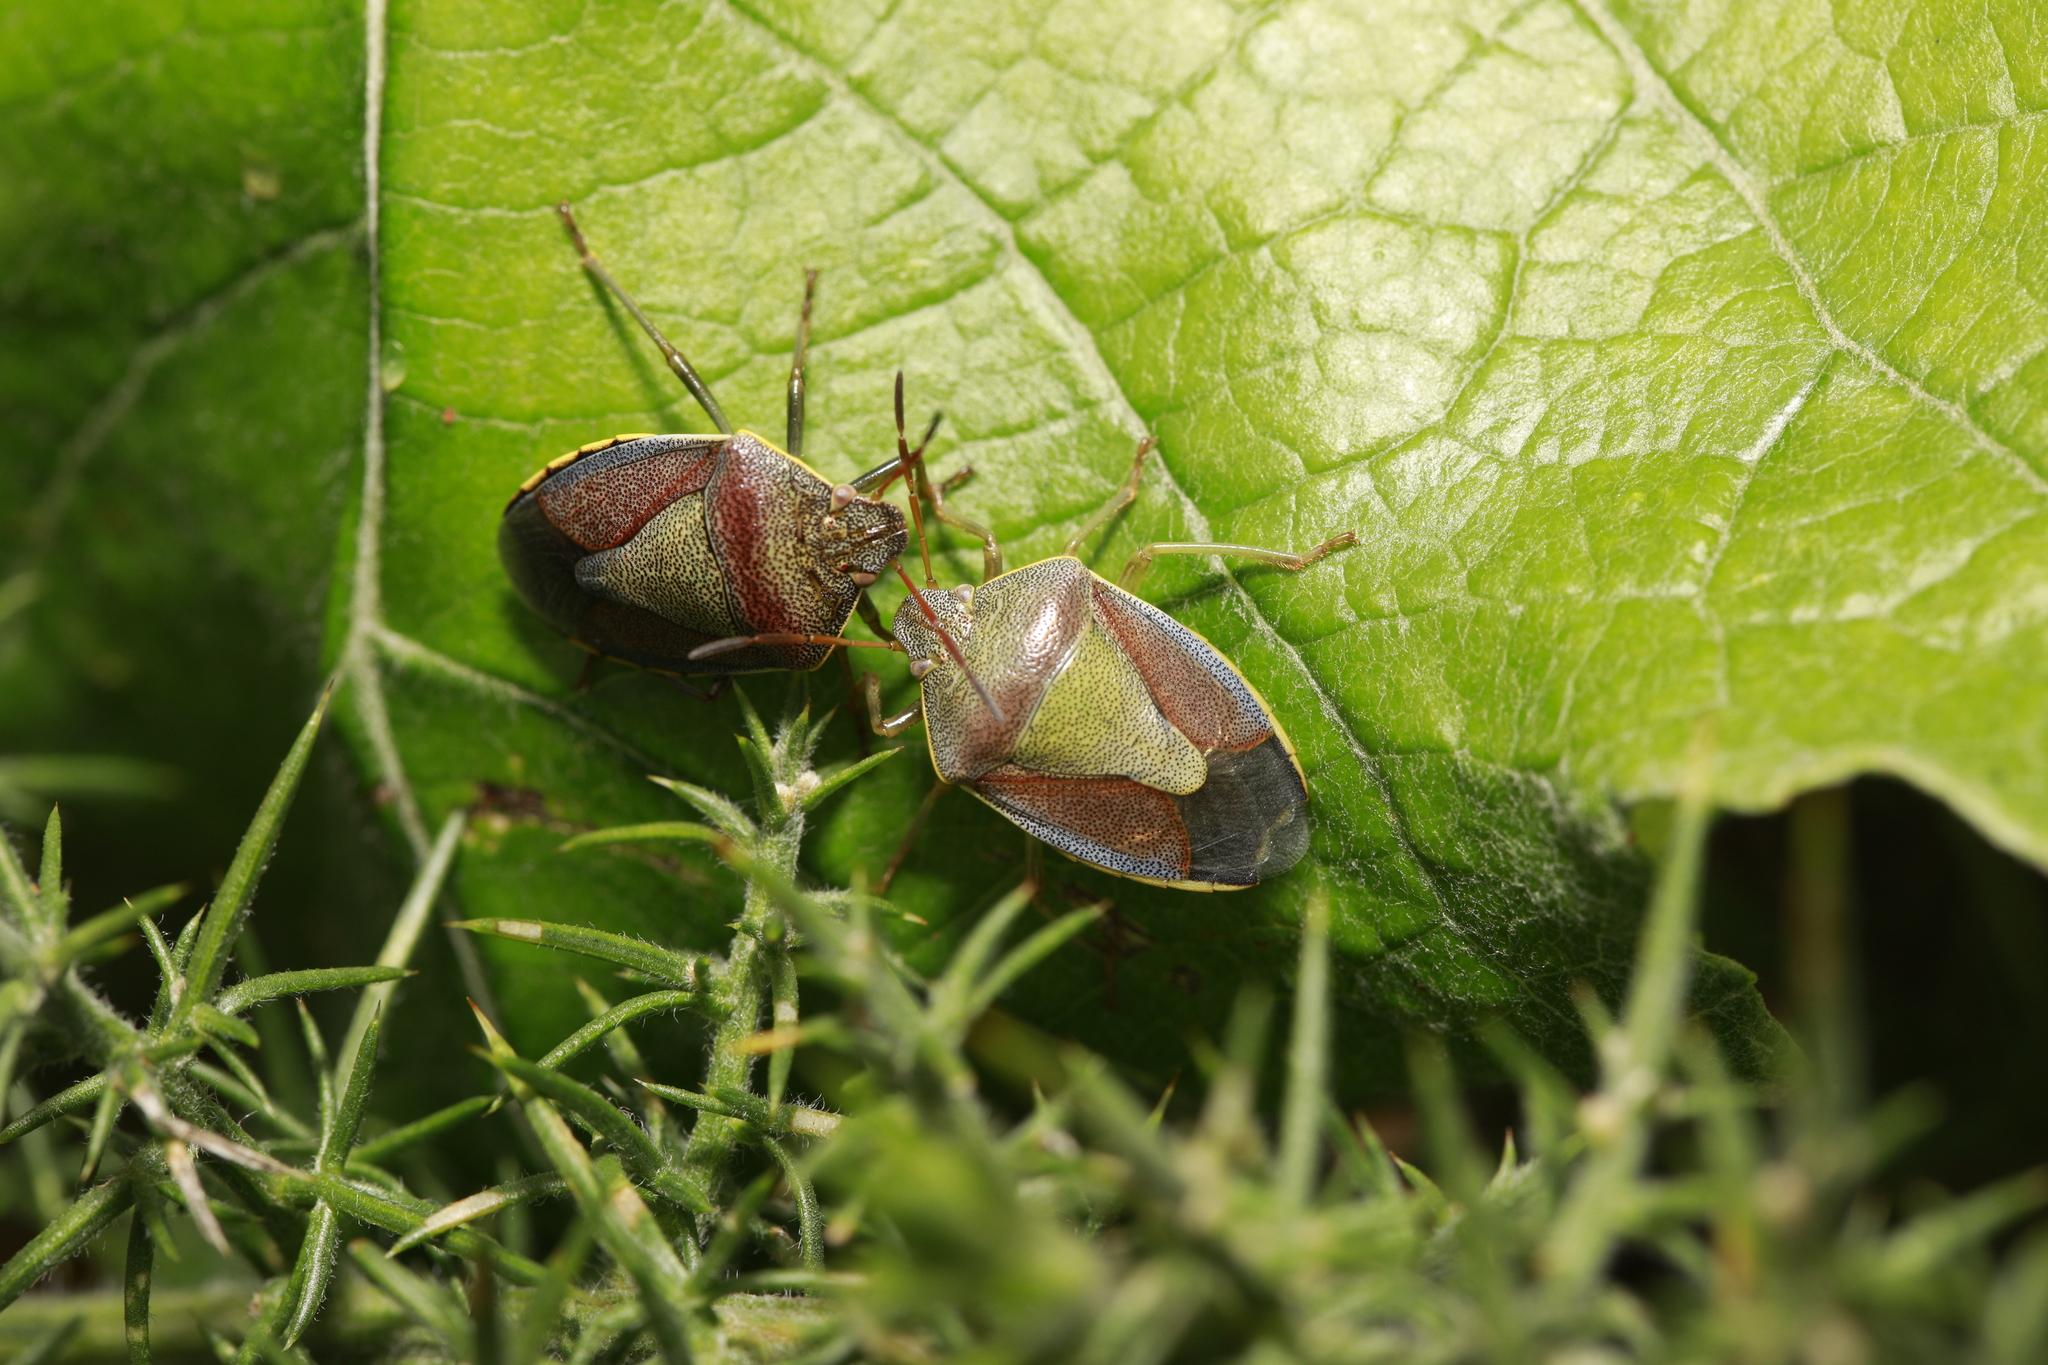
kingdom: Animalia
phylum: Arthropoda
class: Insecta
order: Hemiptera
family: Pentatomidae
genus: Piezodorus
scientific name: Piezodorus lituratus
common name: Stink bug
